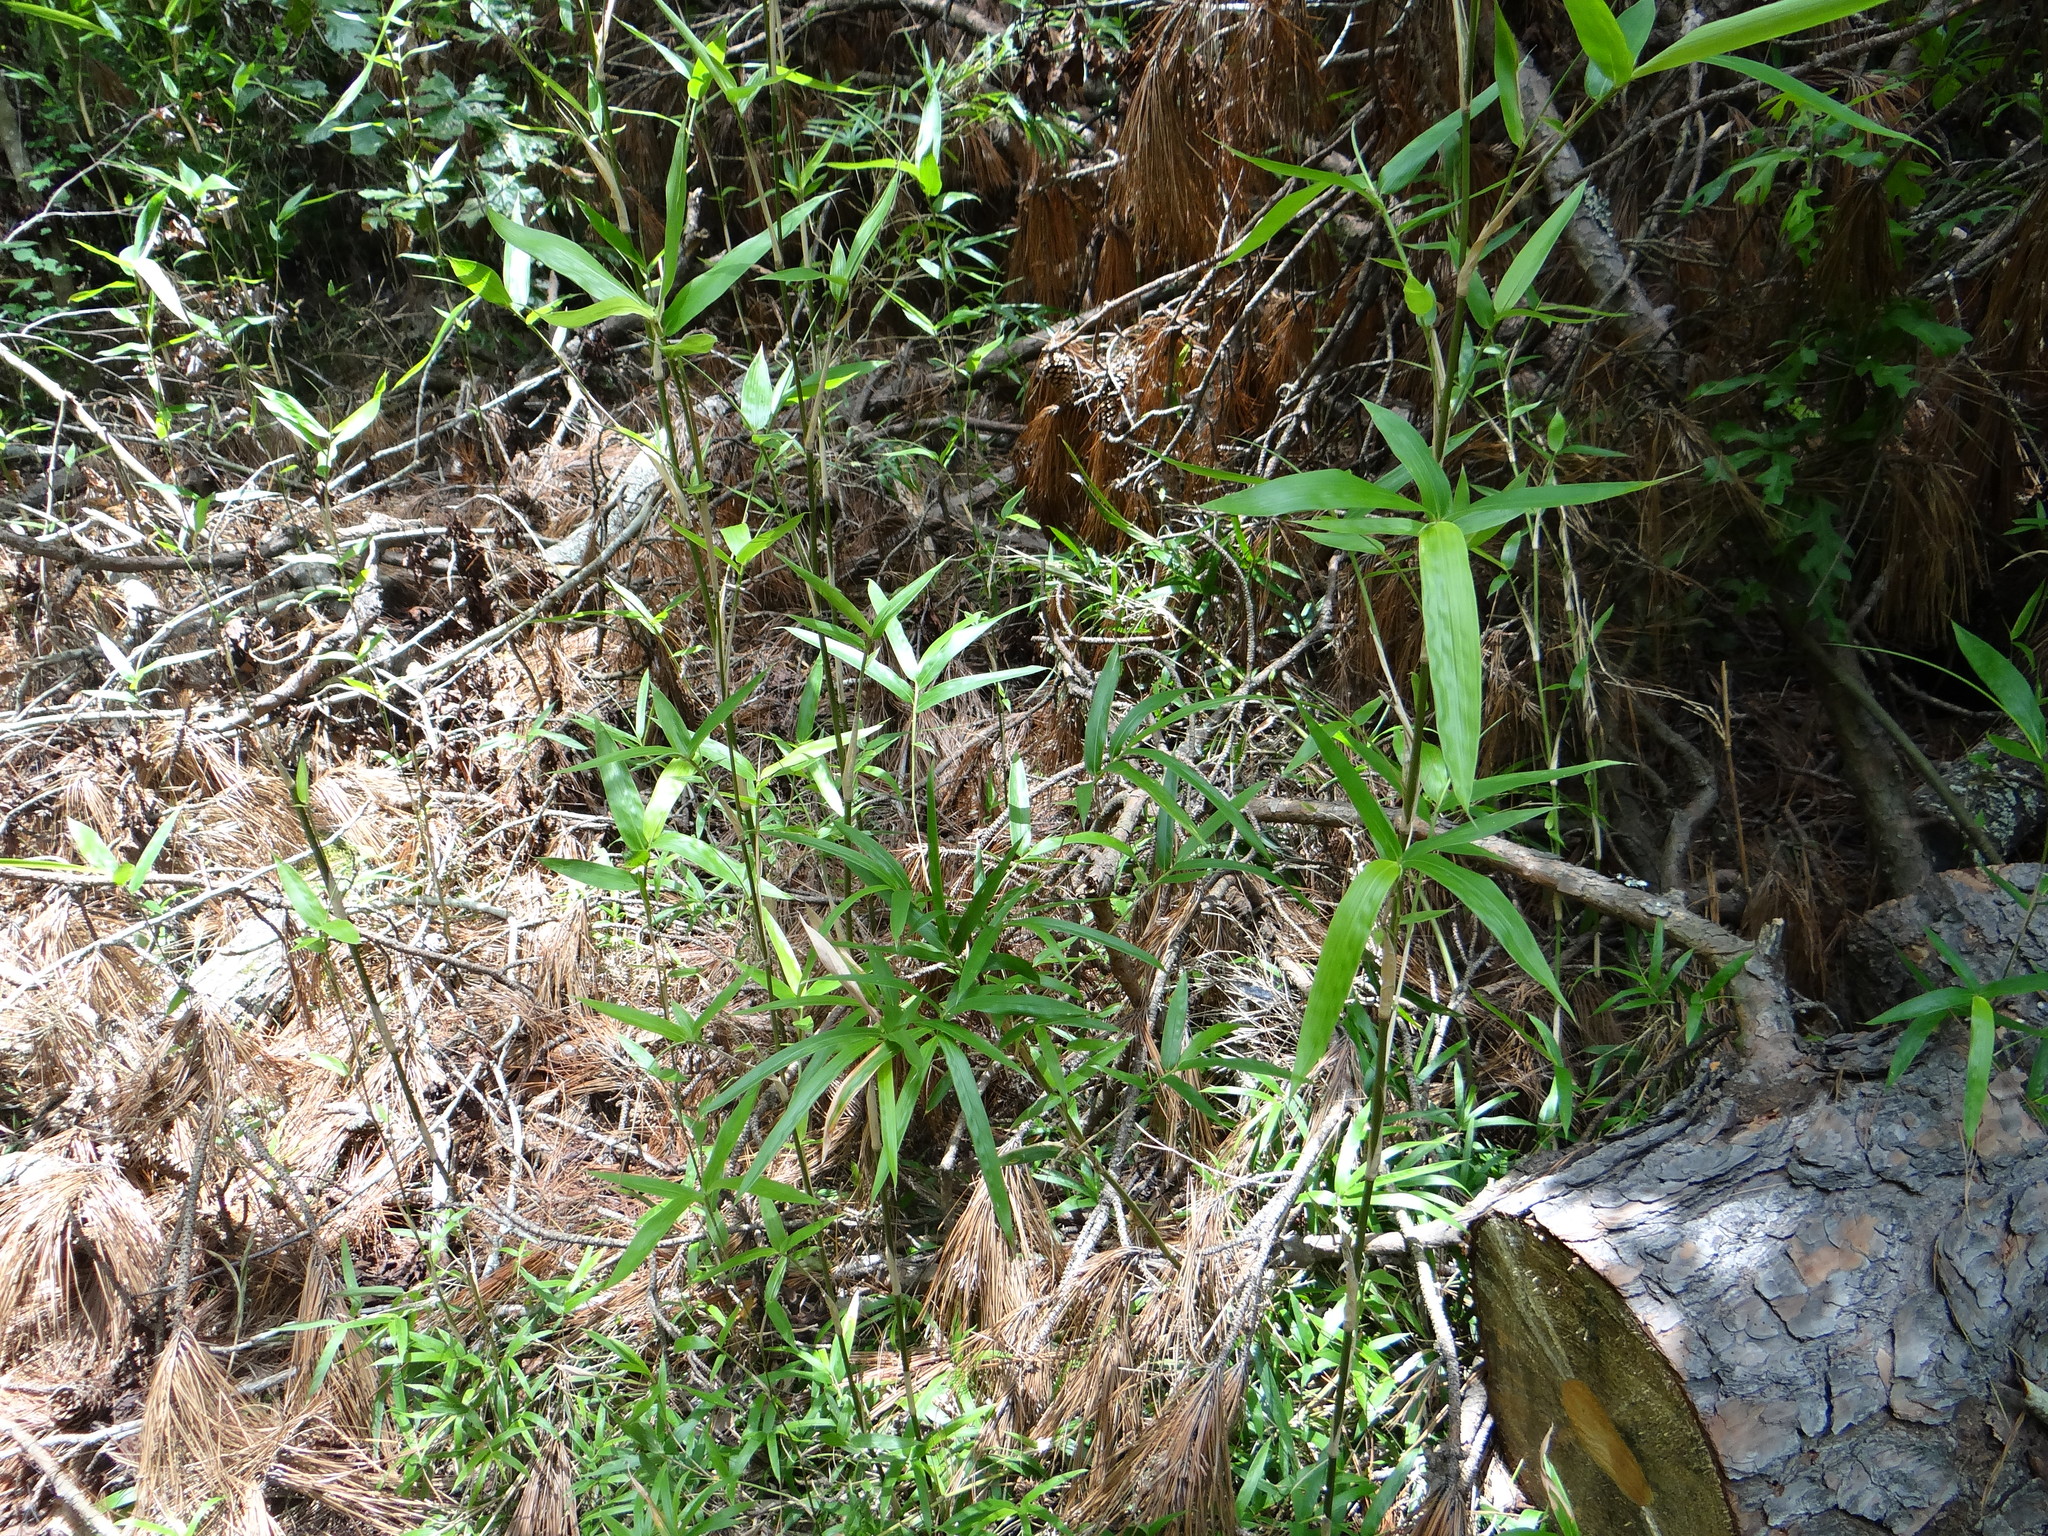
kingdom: Plantae
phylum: Tracheophyta
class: Liliopsida
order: Poales
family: Poaceae
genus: Arundinaria
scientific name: Arundinaria gigantea
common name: Giant cane
